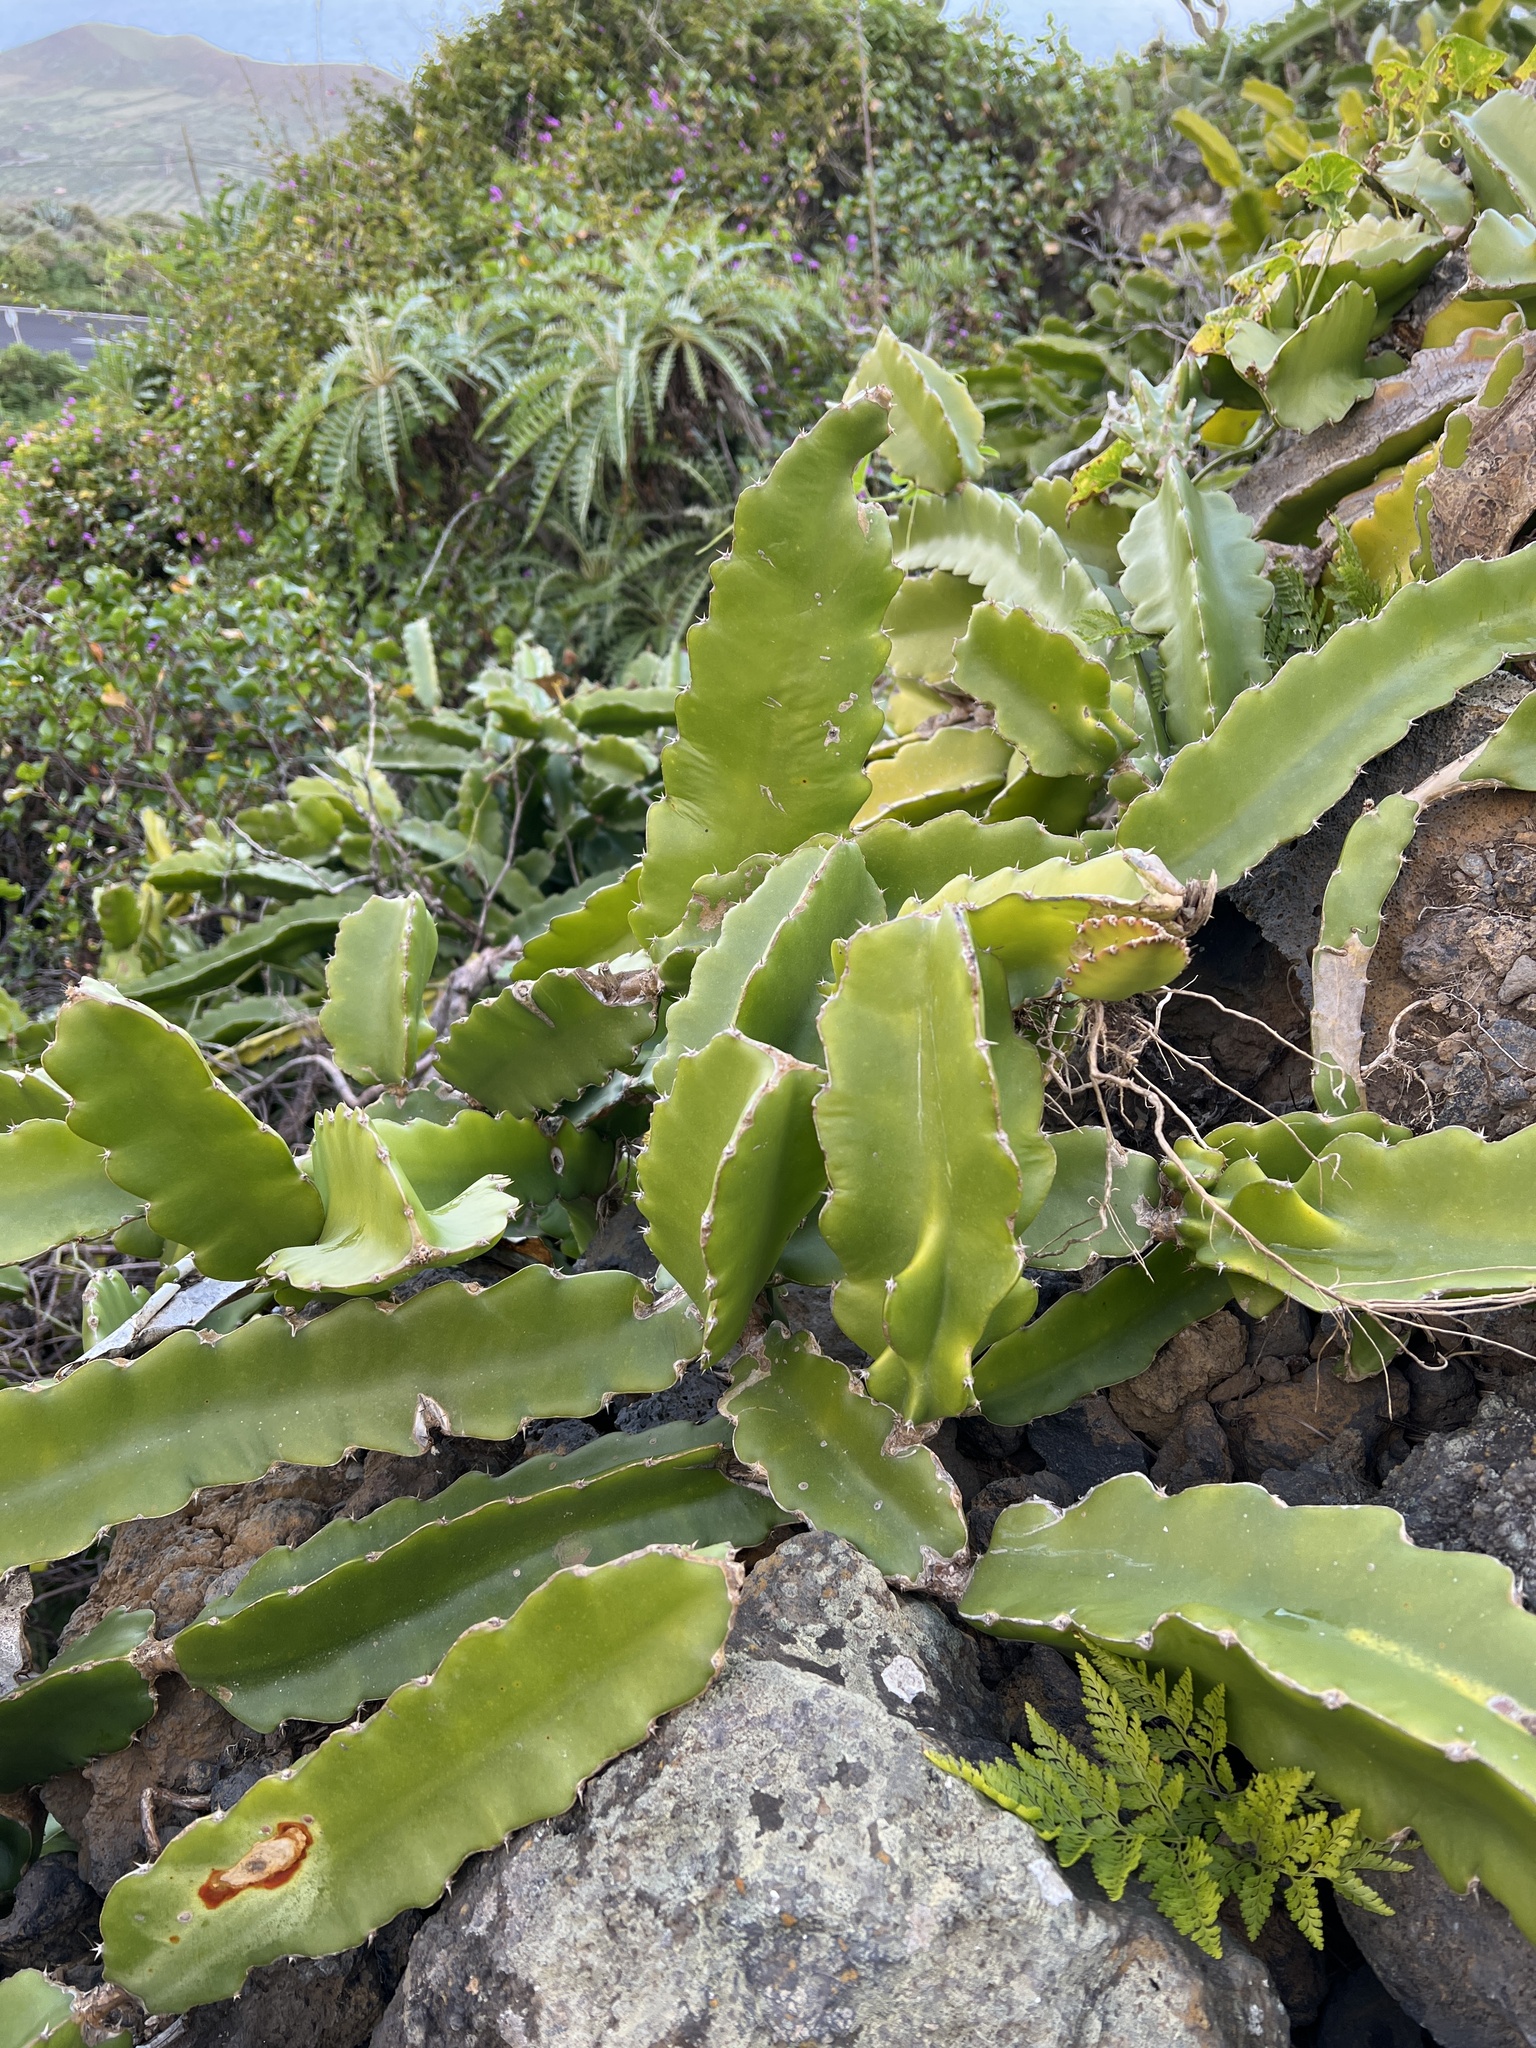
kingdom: Plantae
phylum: Tracheophyta
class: Magnoliopsida
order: Caryophyllales
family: Cactaceae
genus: Selenicereus
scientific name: Selenicereus undatus
